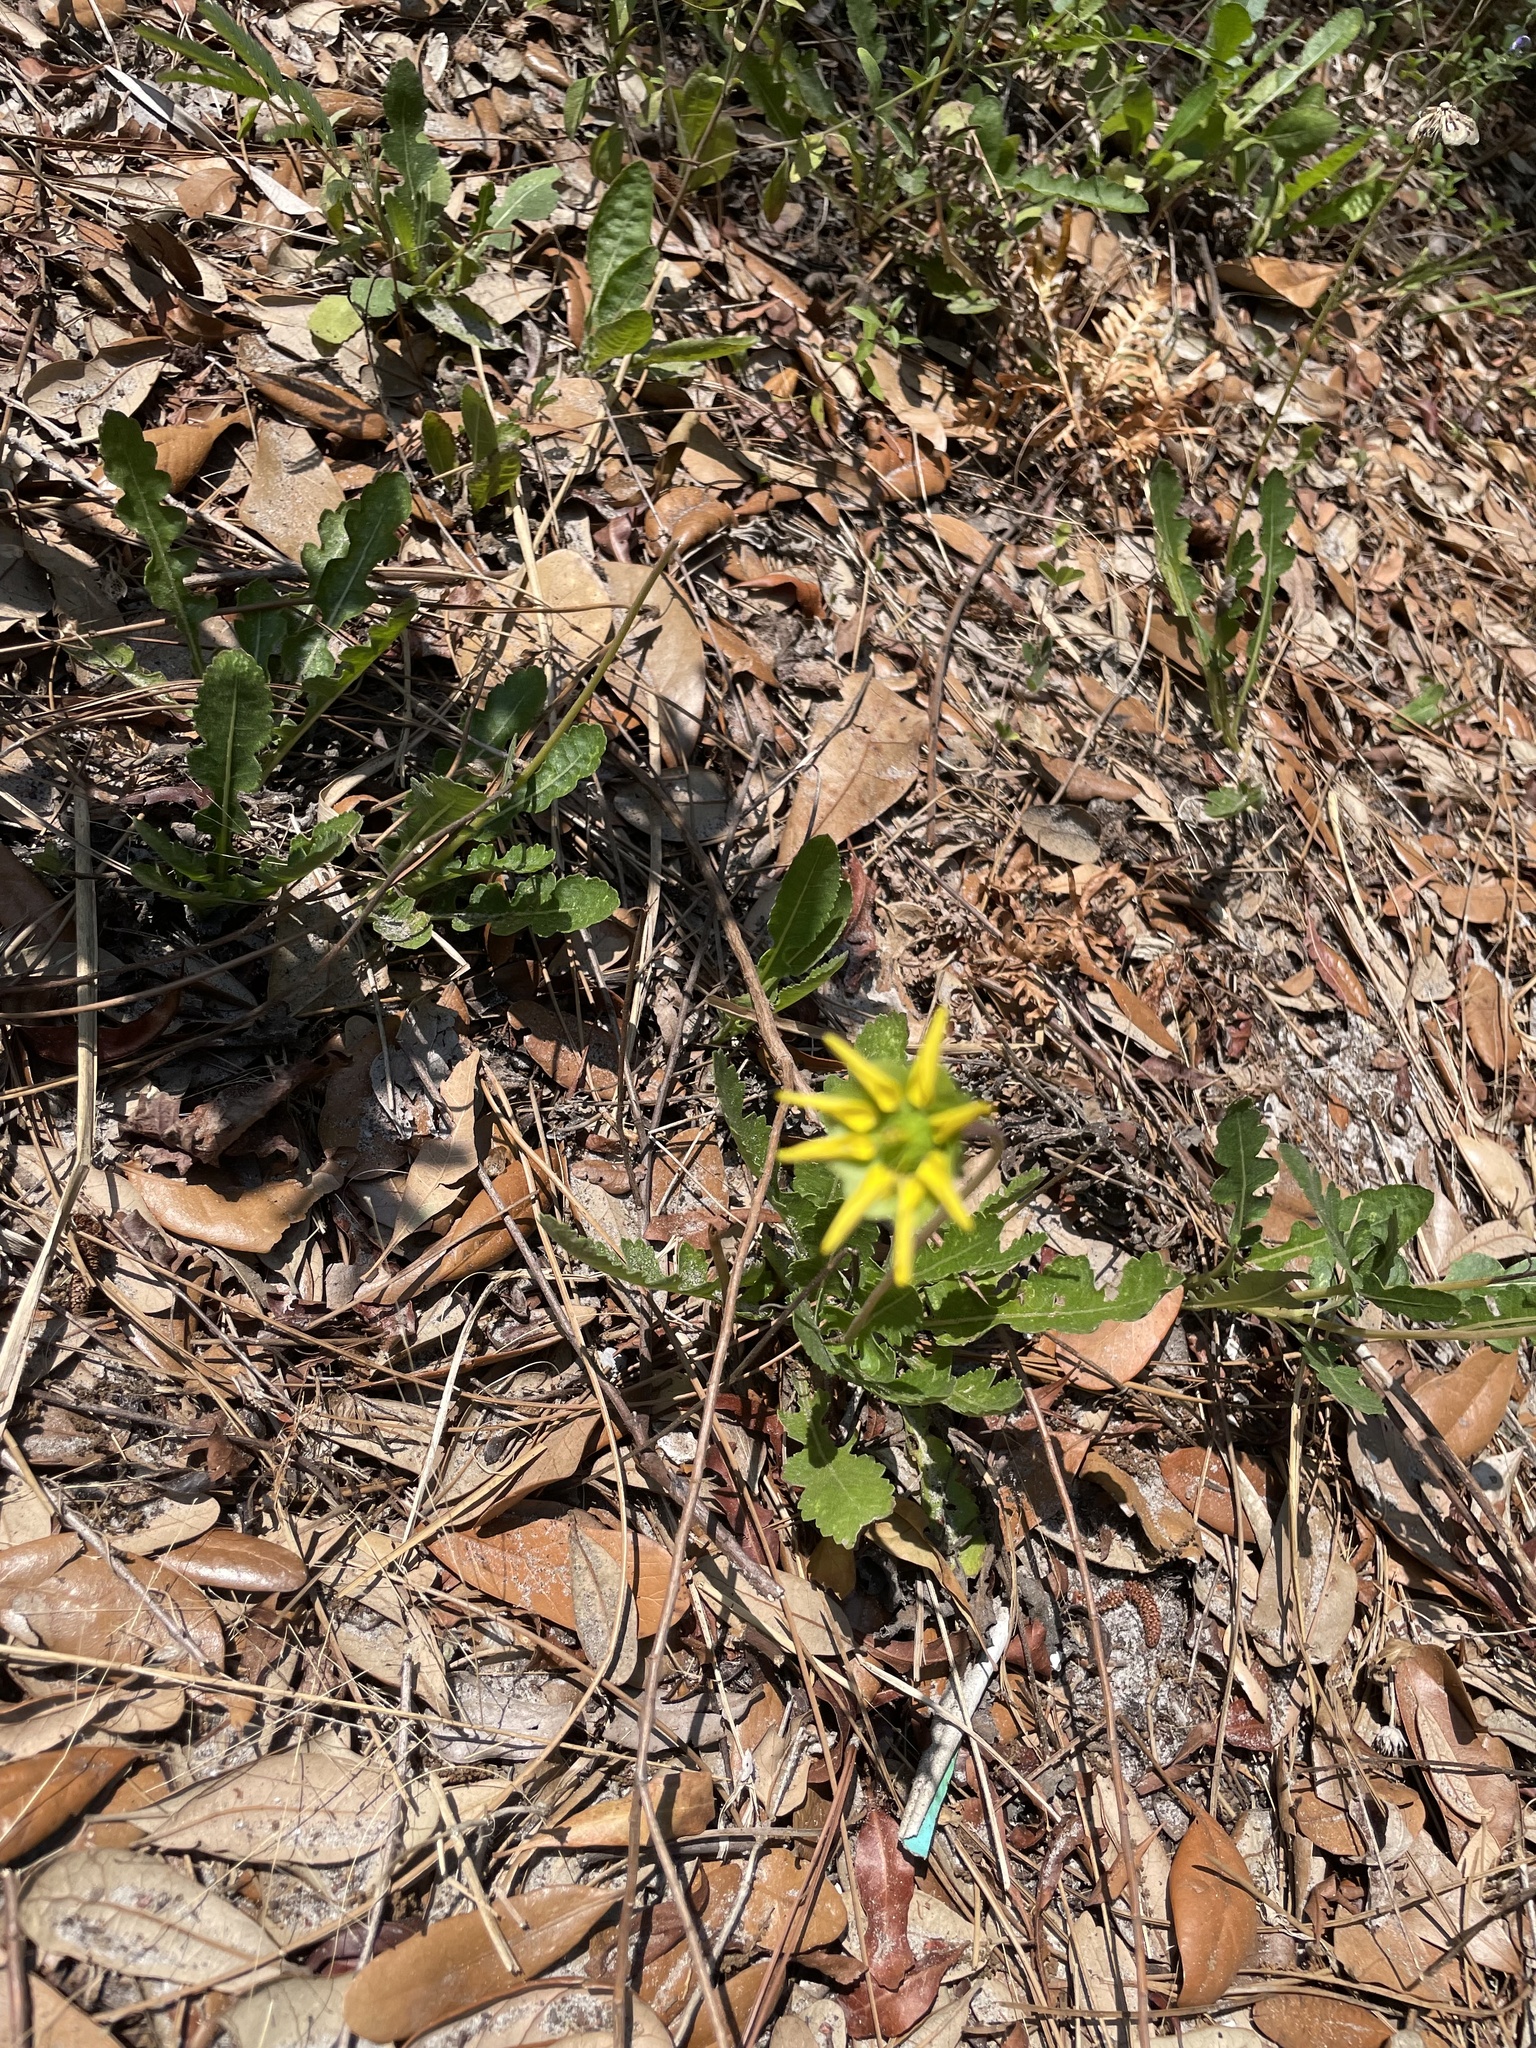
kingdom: Plantae
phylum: Tracheophyta
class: Magnoliopsida
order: Asterales
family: Asteraceae
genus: Berlandiera
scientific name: Berlandiera subacaulis
